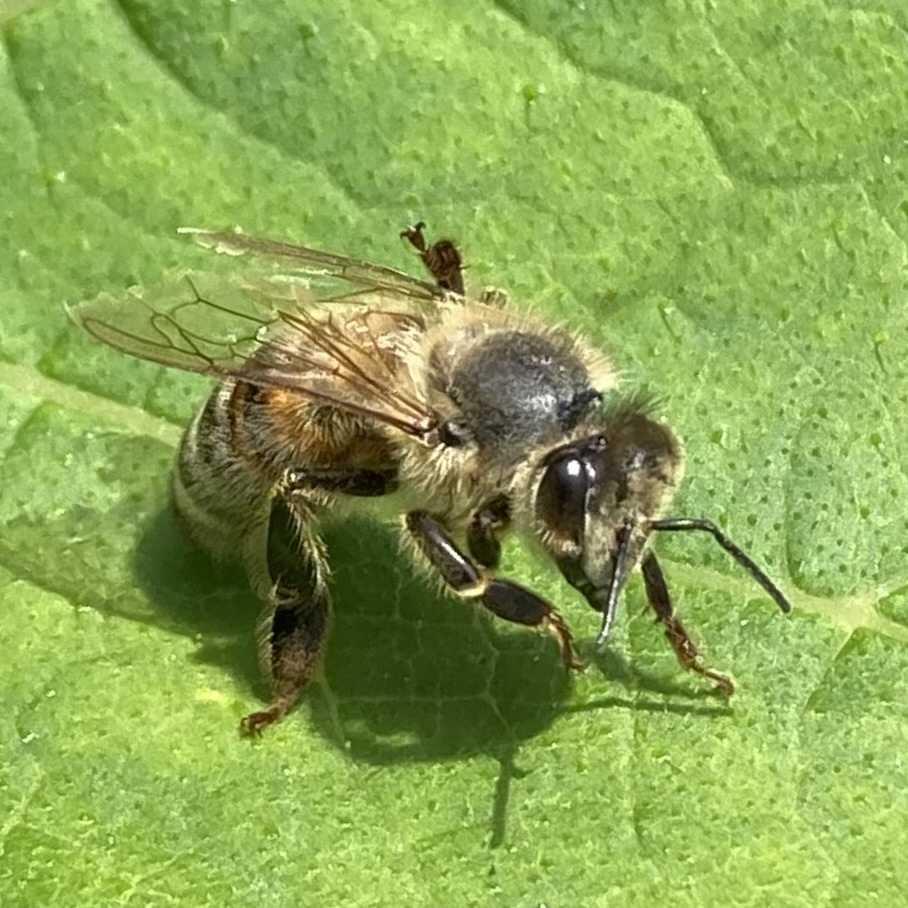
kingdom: Animalia
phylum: Arthropoda
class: Insecta
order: Hymenoptera
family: Apidae
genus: Apis
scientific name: Apis mellifera
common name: Honey bee
